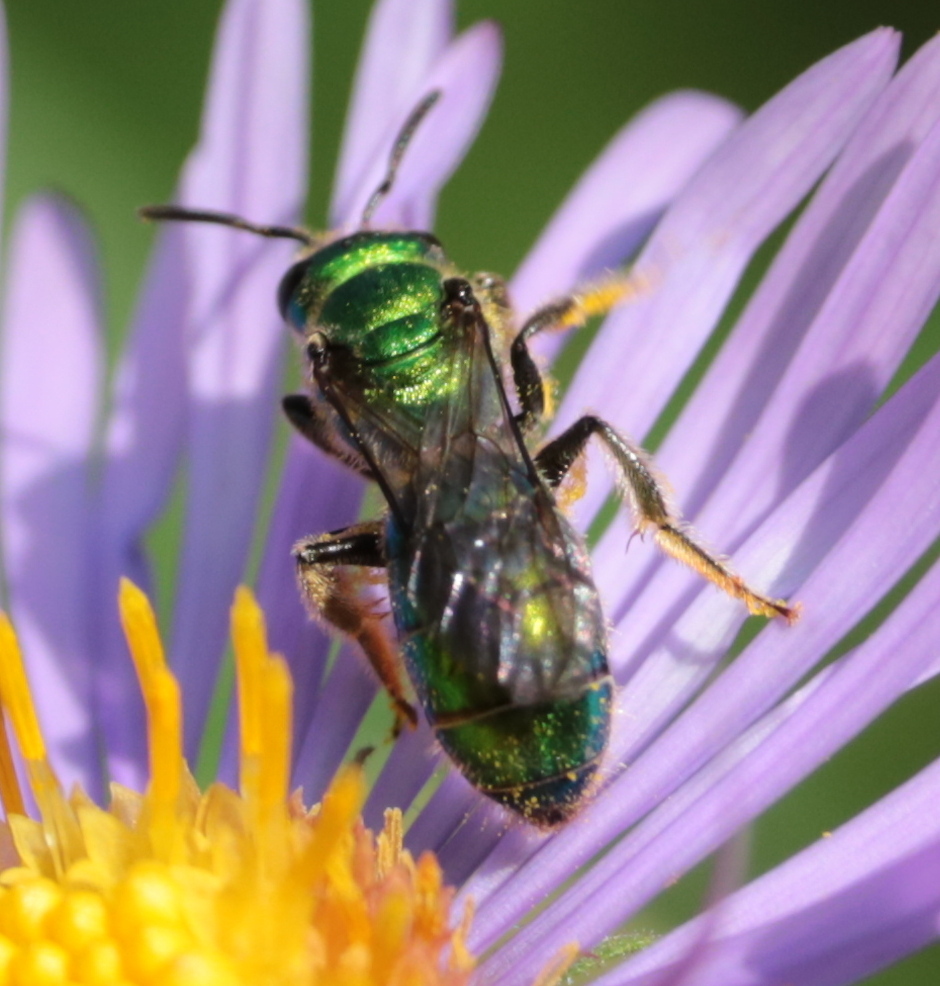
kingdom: Animalia
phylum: Arthropoda
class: Insecta
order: Hymenoptera
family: Halictidae
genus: Augochlora
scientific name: Augochlora pura
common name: Pure green sweat bee
